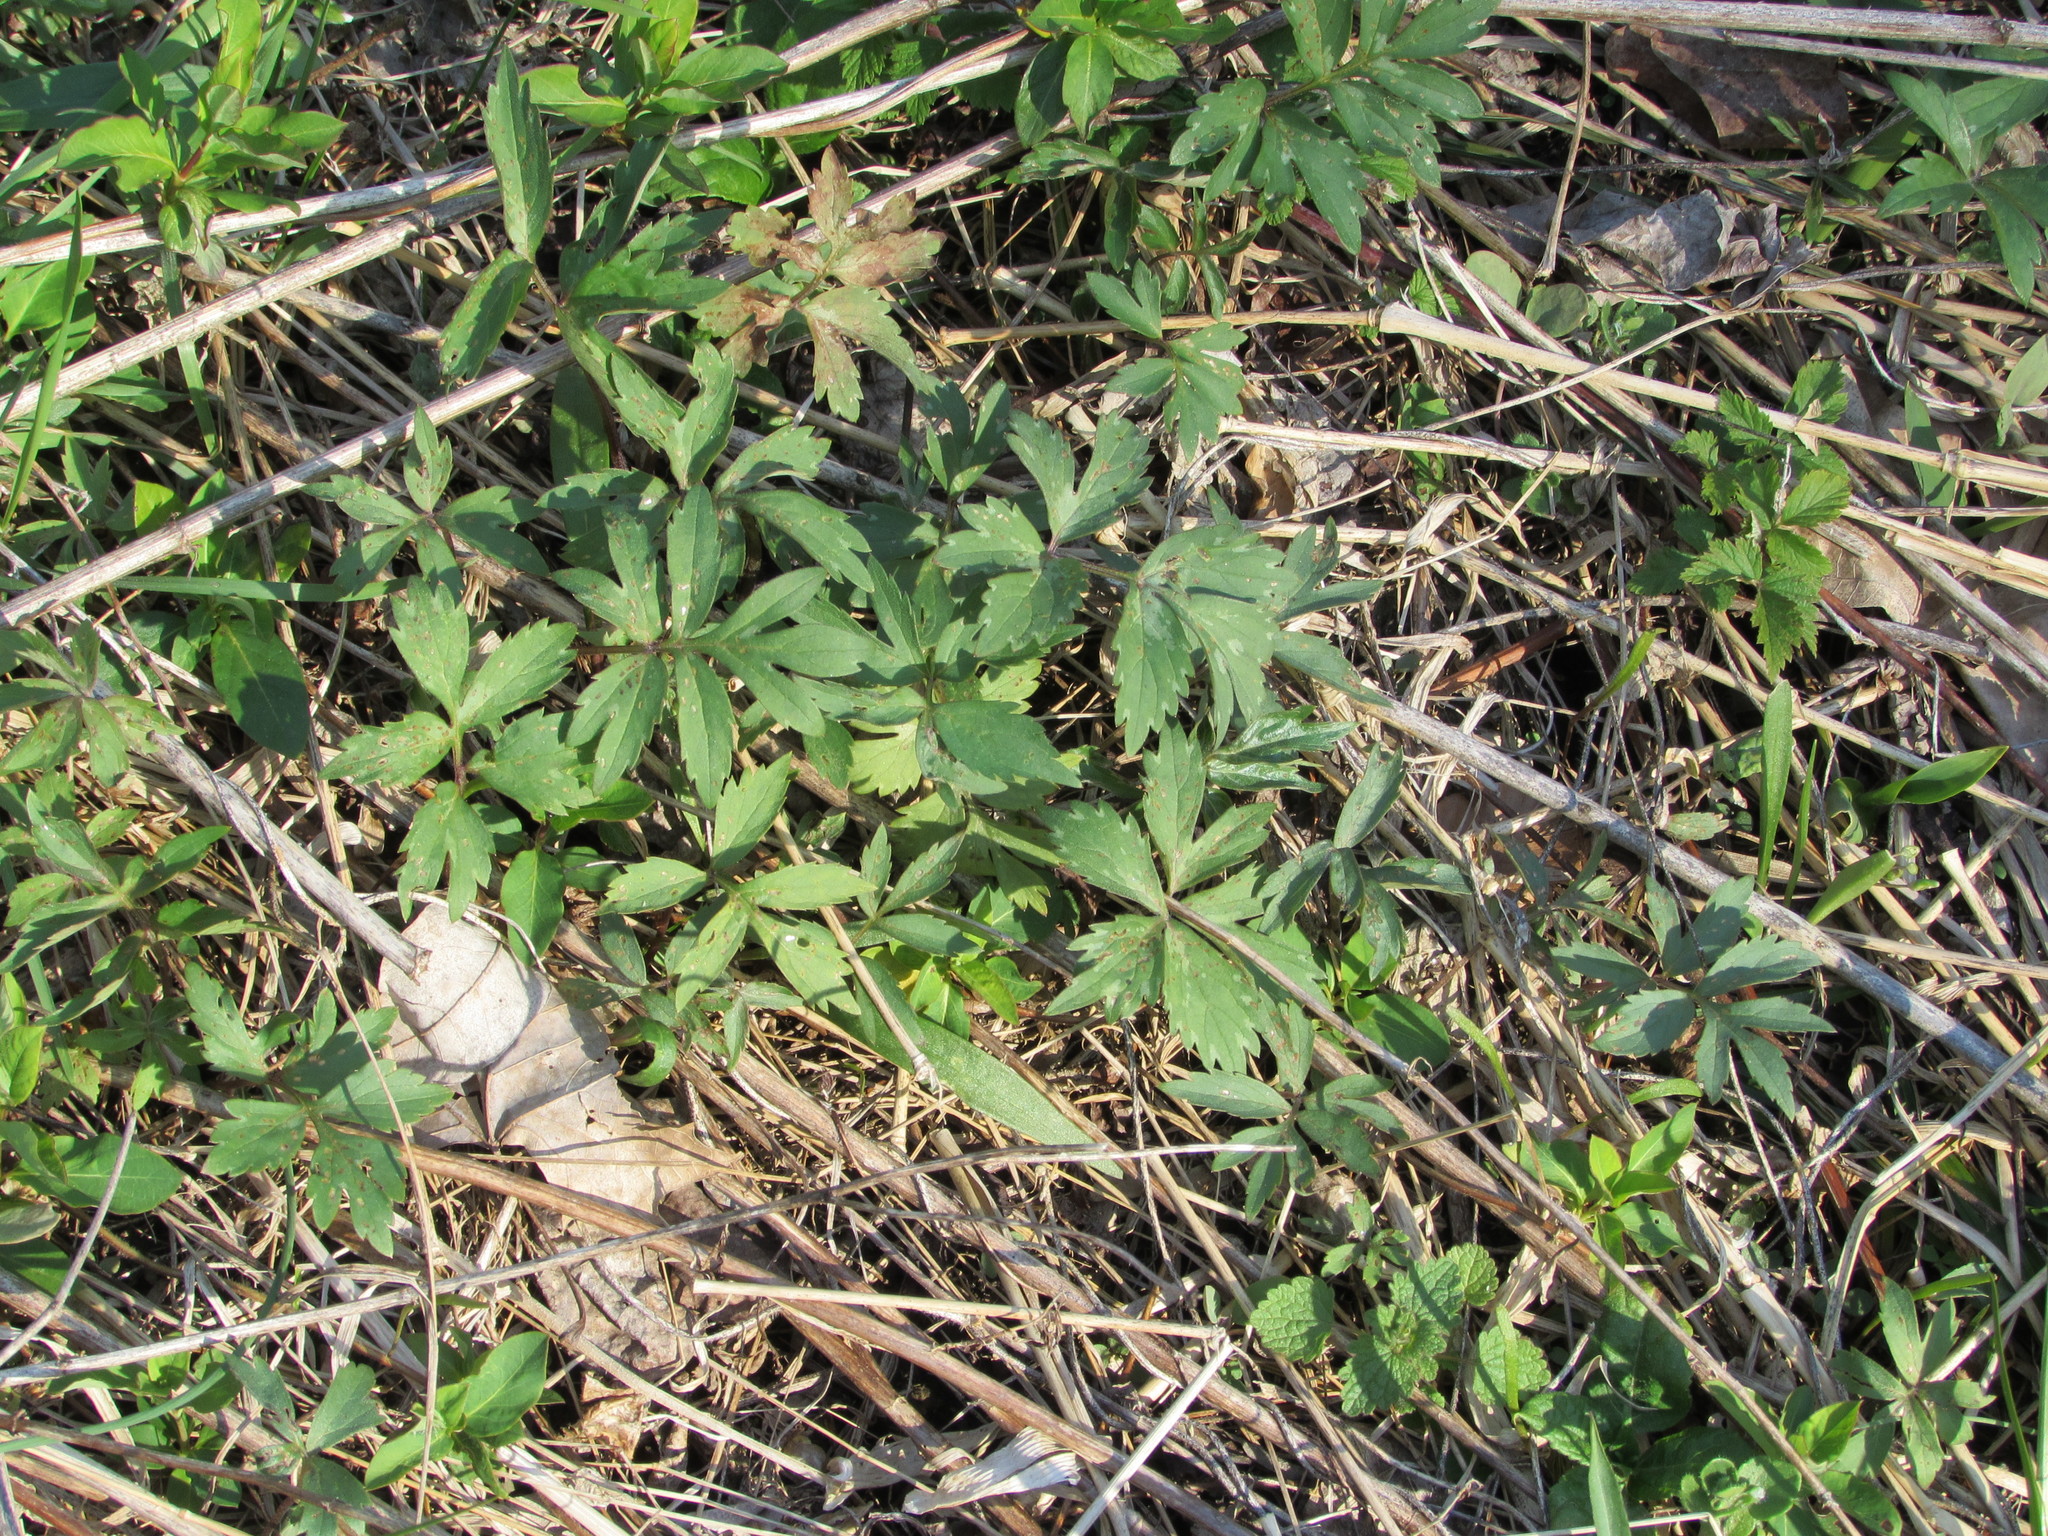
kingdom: Plantae
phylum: Tracheophyta
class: Magnoliopsida
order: Boraginales
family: Hydrophyllaceae
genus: Hydrophyllum
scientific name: Hydrophyllum virginianum
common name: Virginia waterleaf
